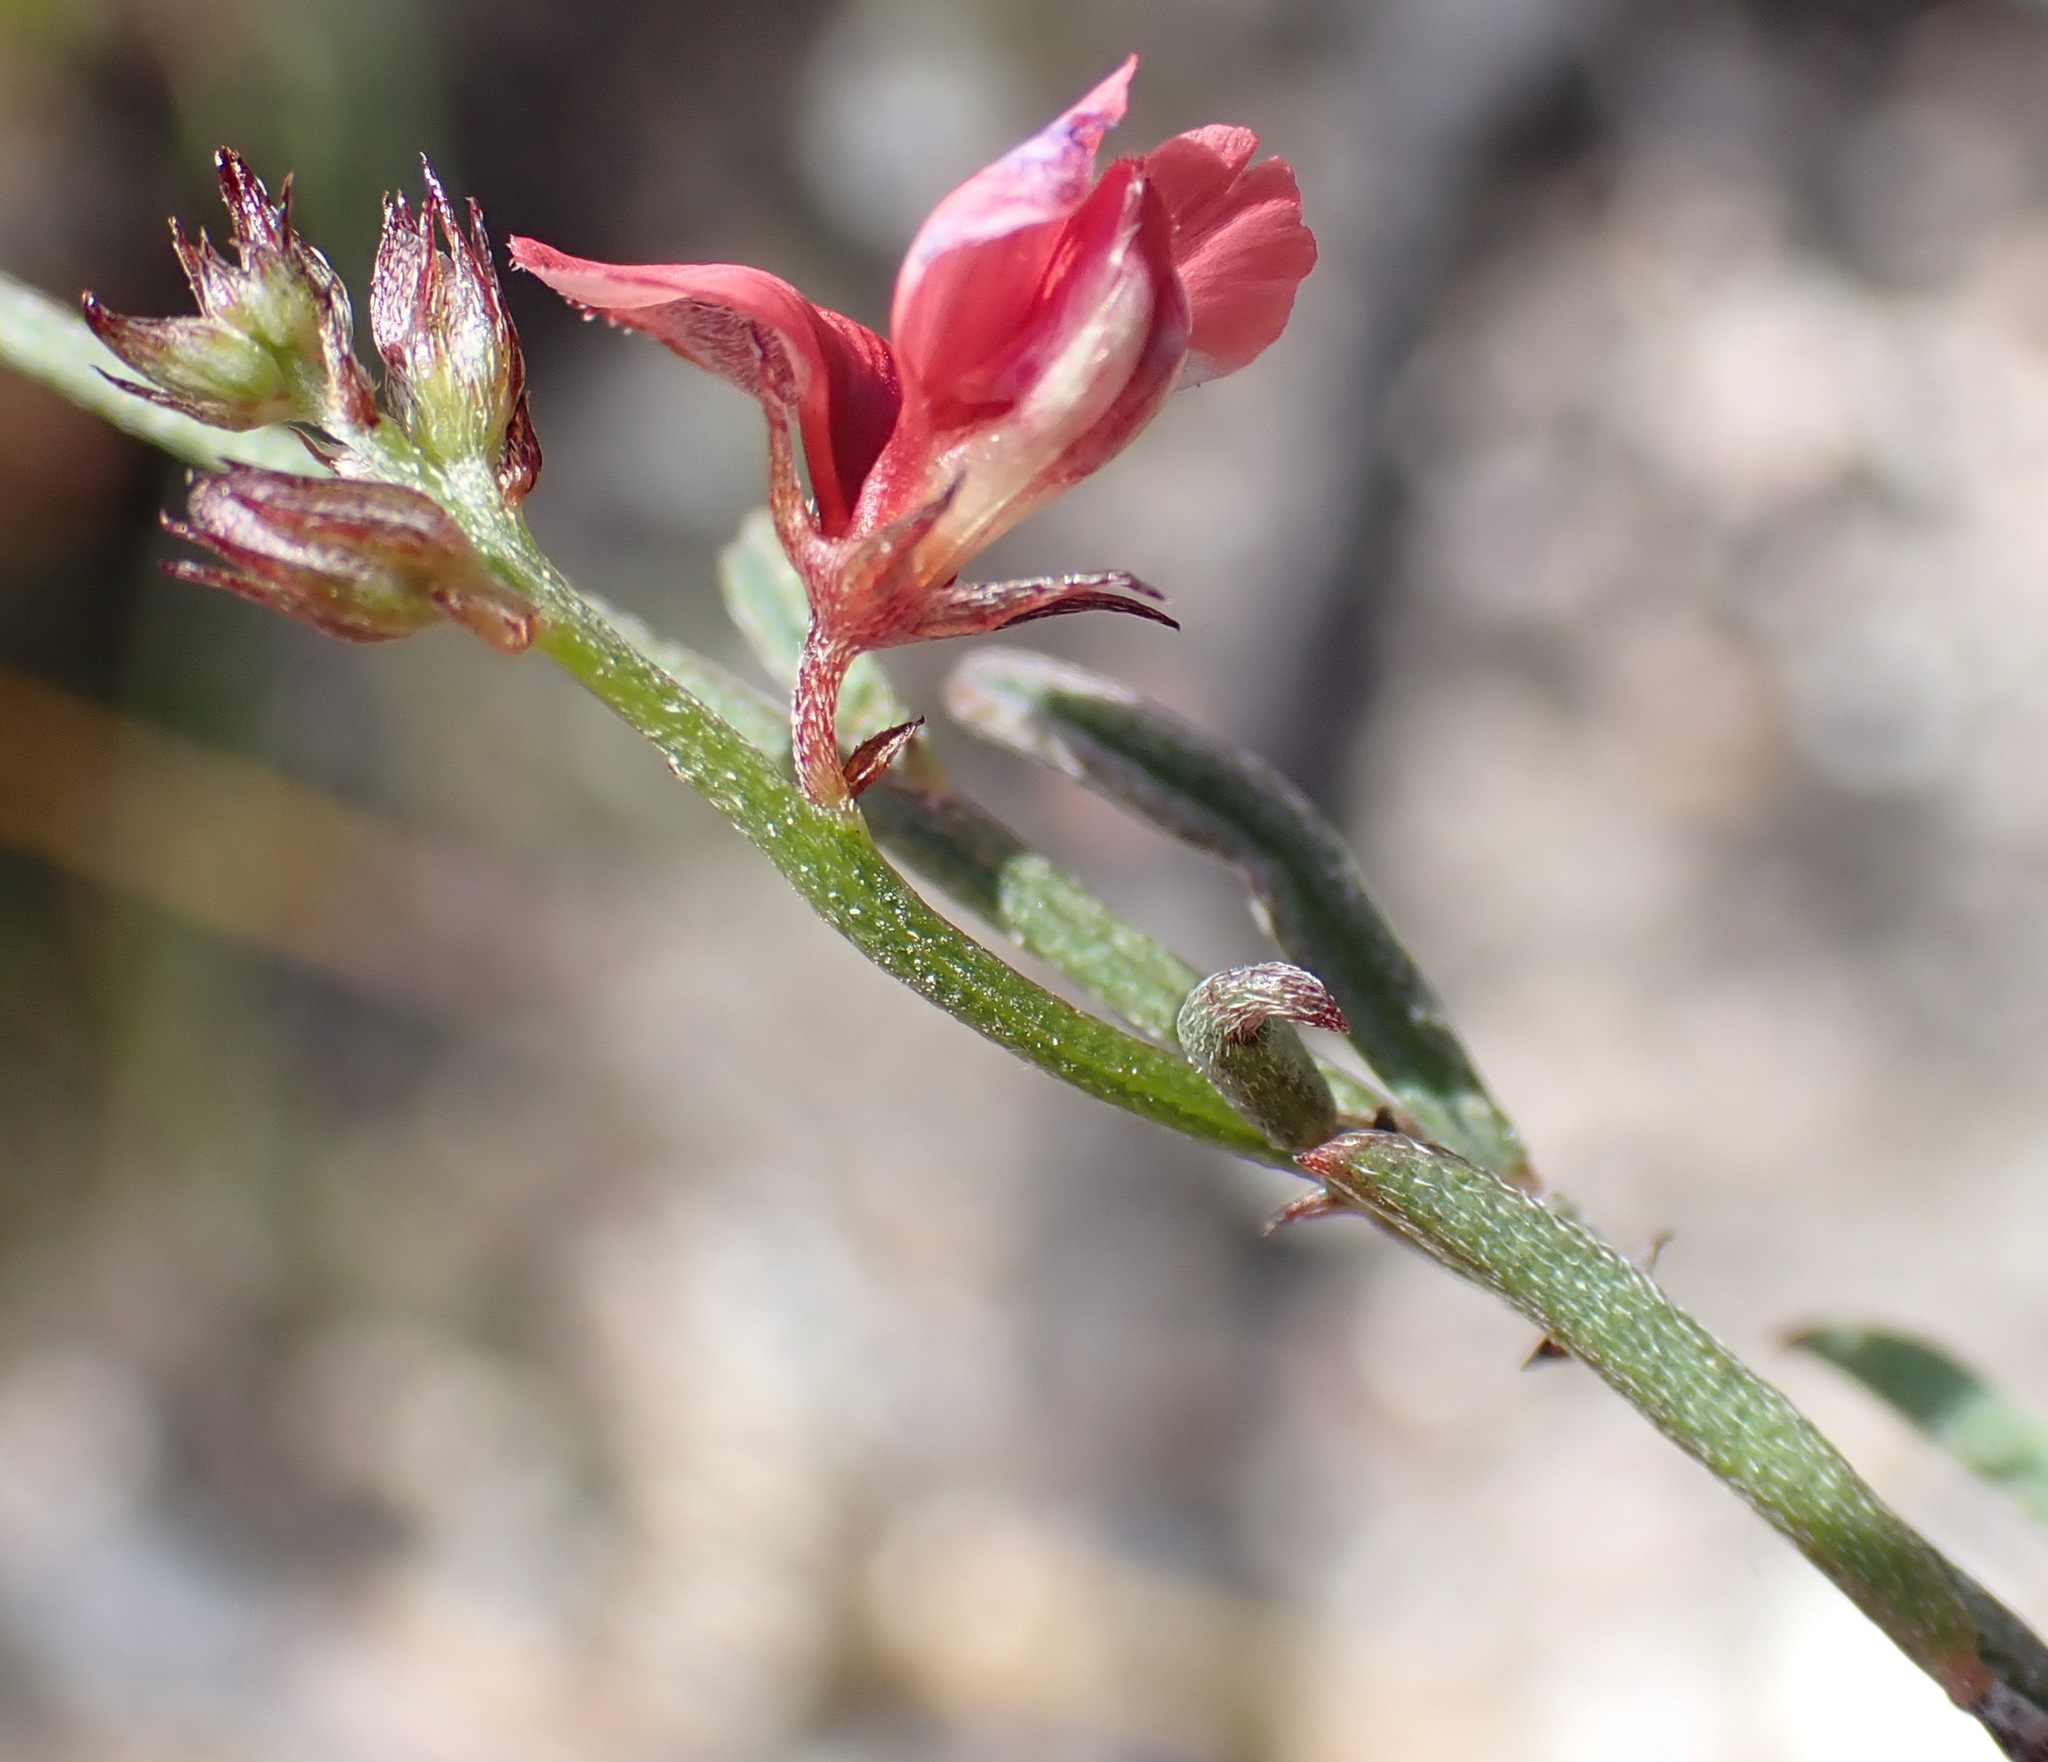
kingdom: Plantae
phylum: Tracheophyta
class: Magnoliopsida
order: Fabales
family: Fabaceae
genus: Indigofera
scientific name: Indigofera leptocarpa
